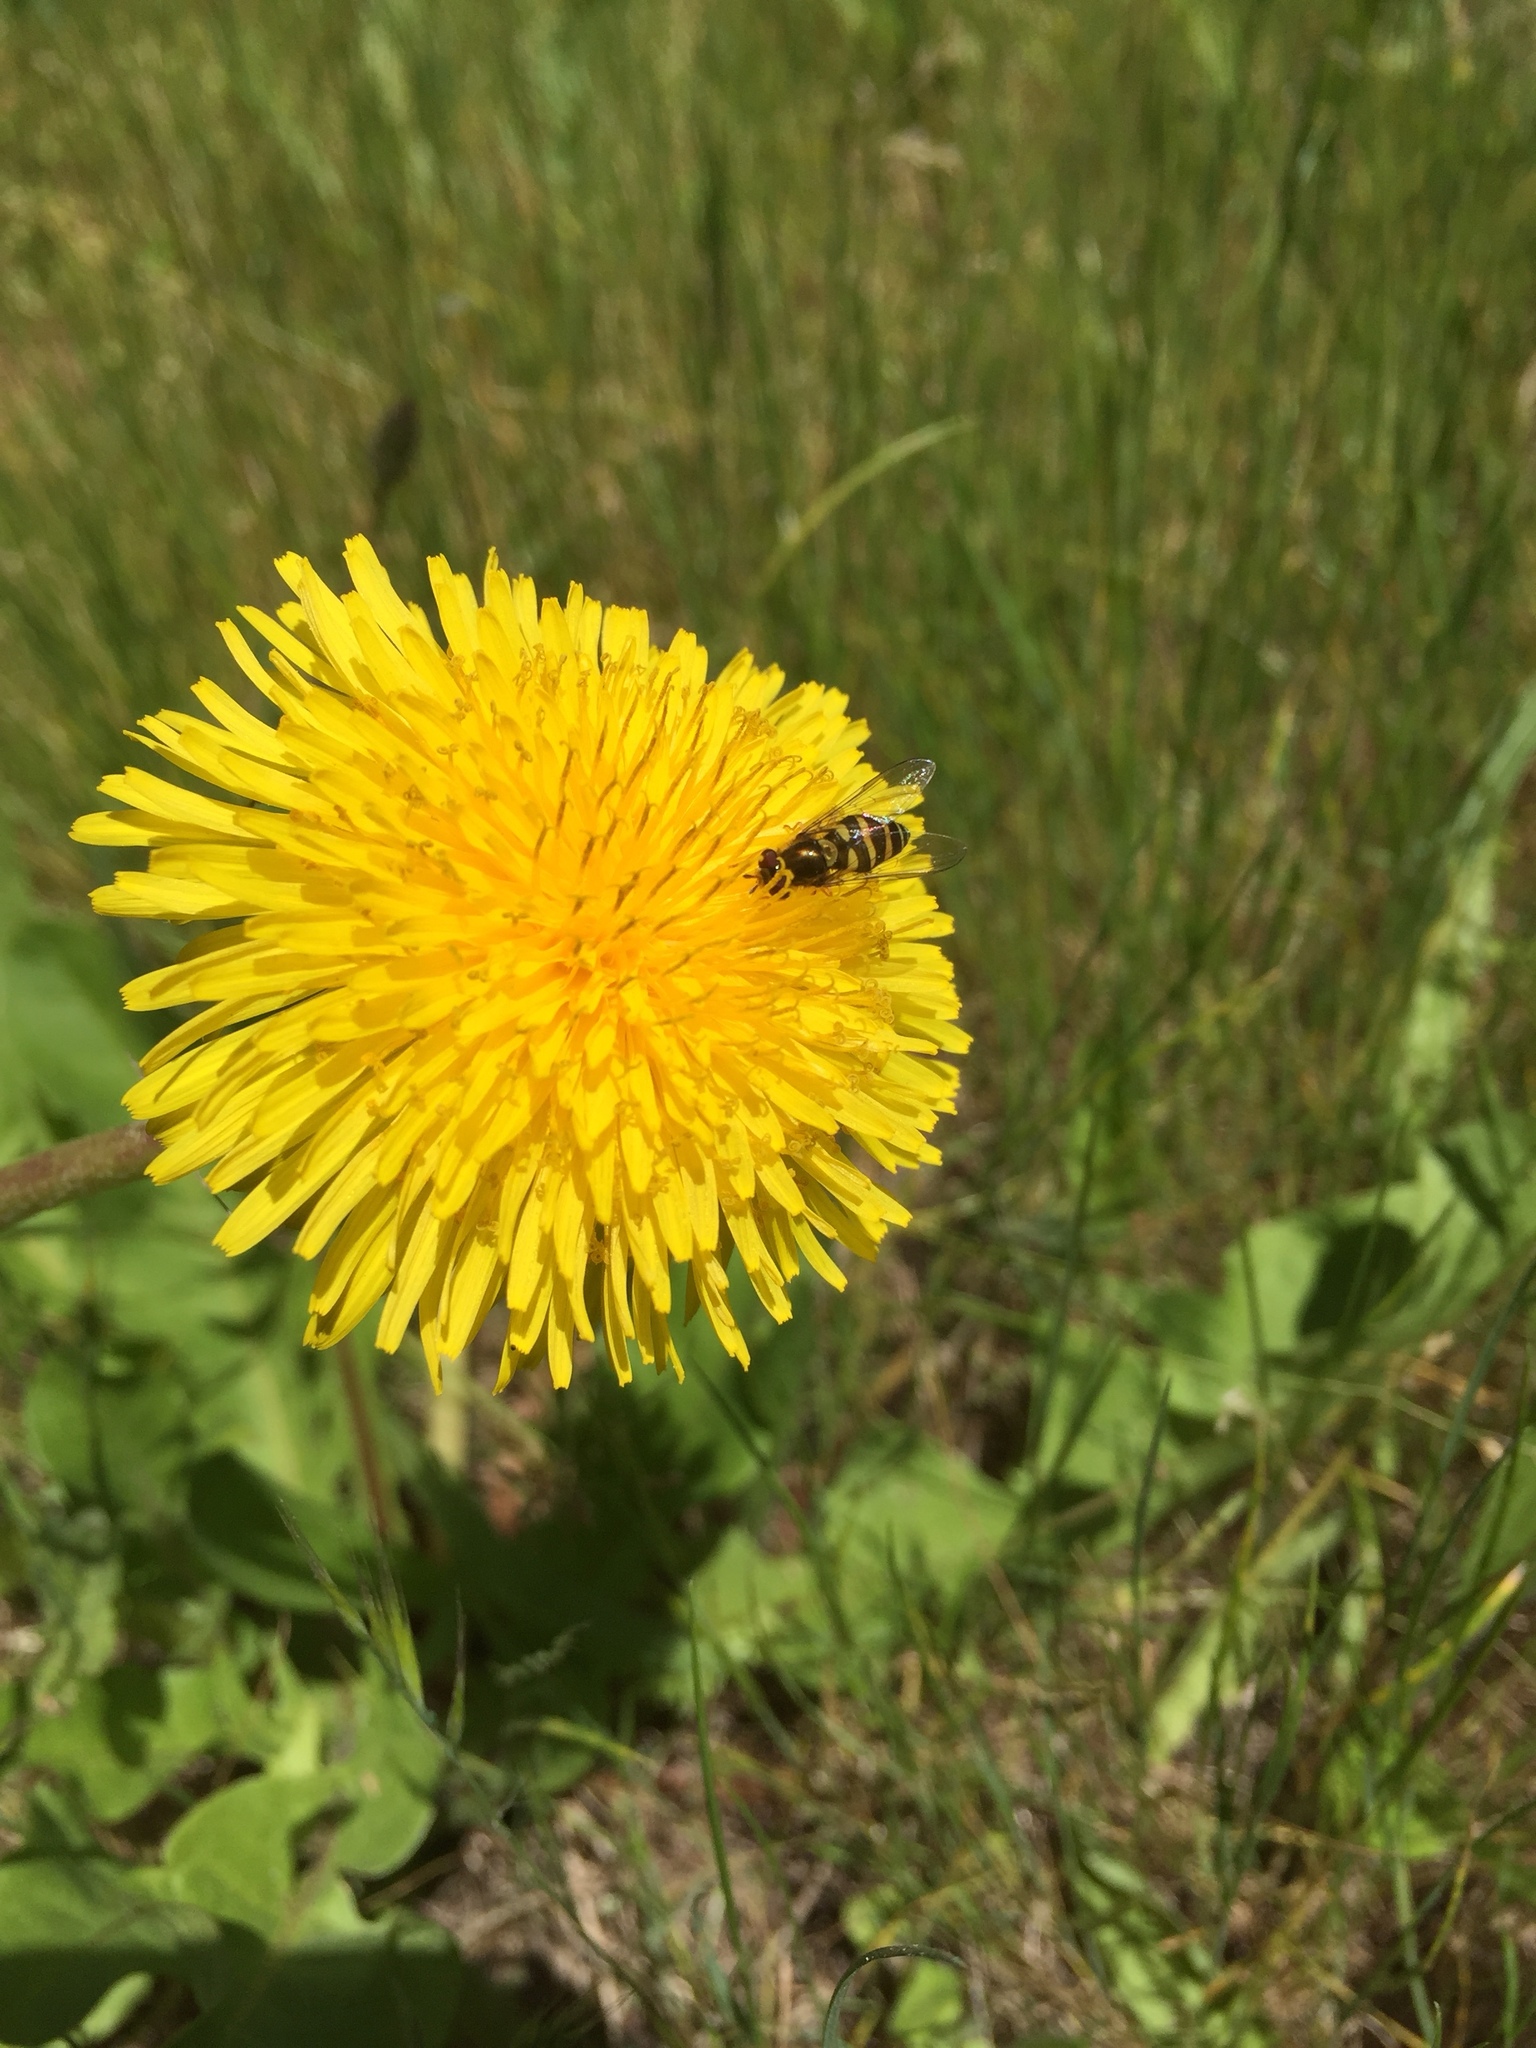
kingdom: Animalia
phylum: Arthropoda
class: Insecta
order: Diptera
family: Syrphidae
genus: Syrphus
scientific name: Syrphus opinator
